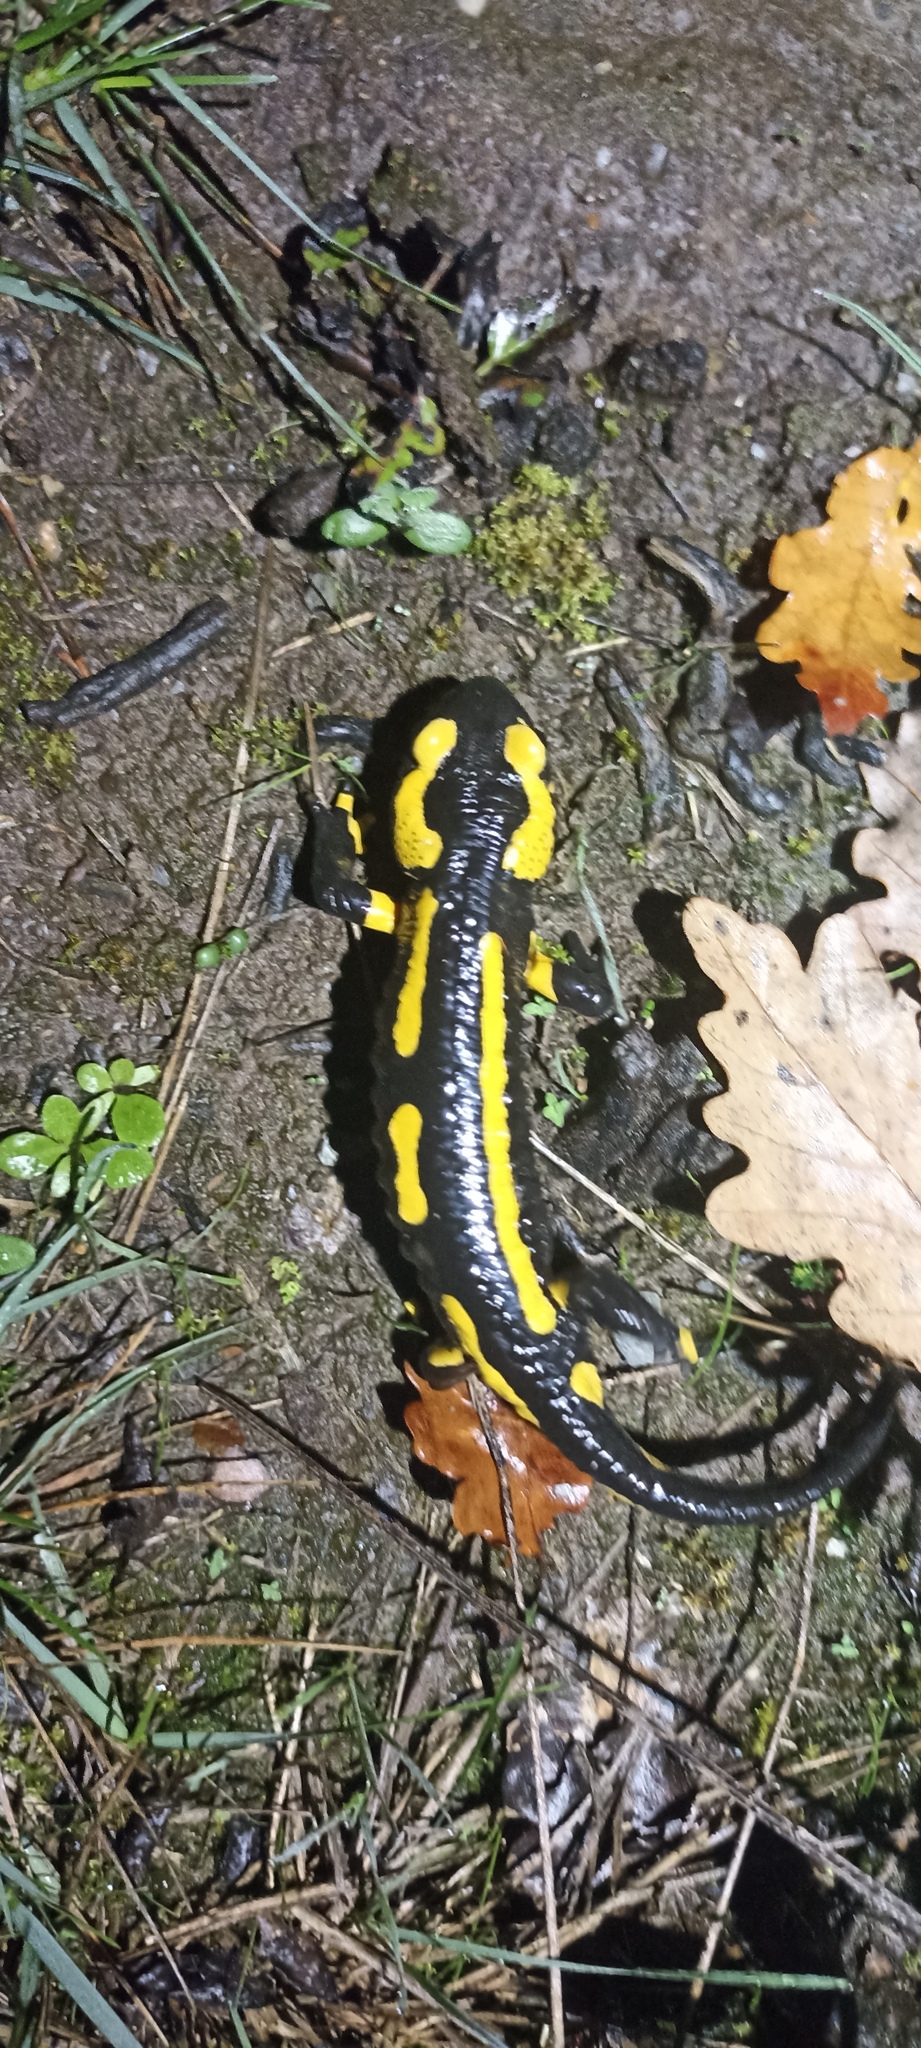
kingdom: Animalia
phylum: Chordata
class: Amphibia
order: Caudata
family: Salamandridae
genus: Salamandra
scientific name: Salamandra salamandra
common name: Fire salamander
